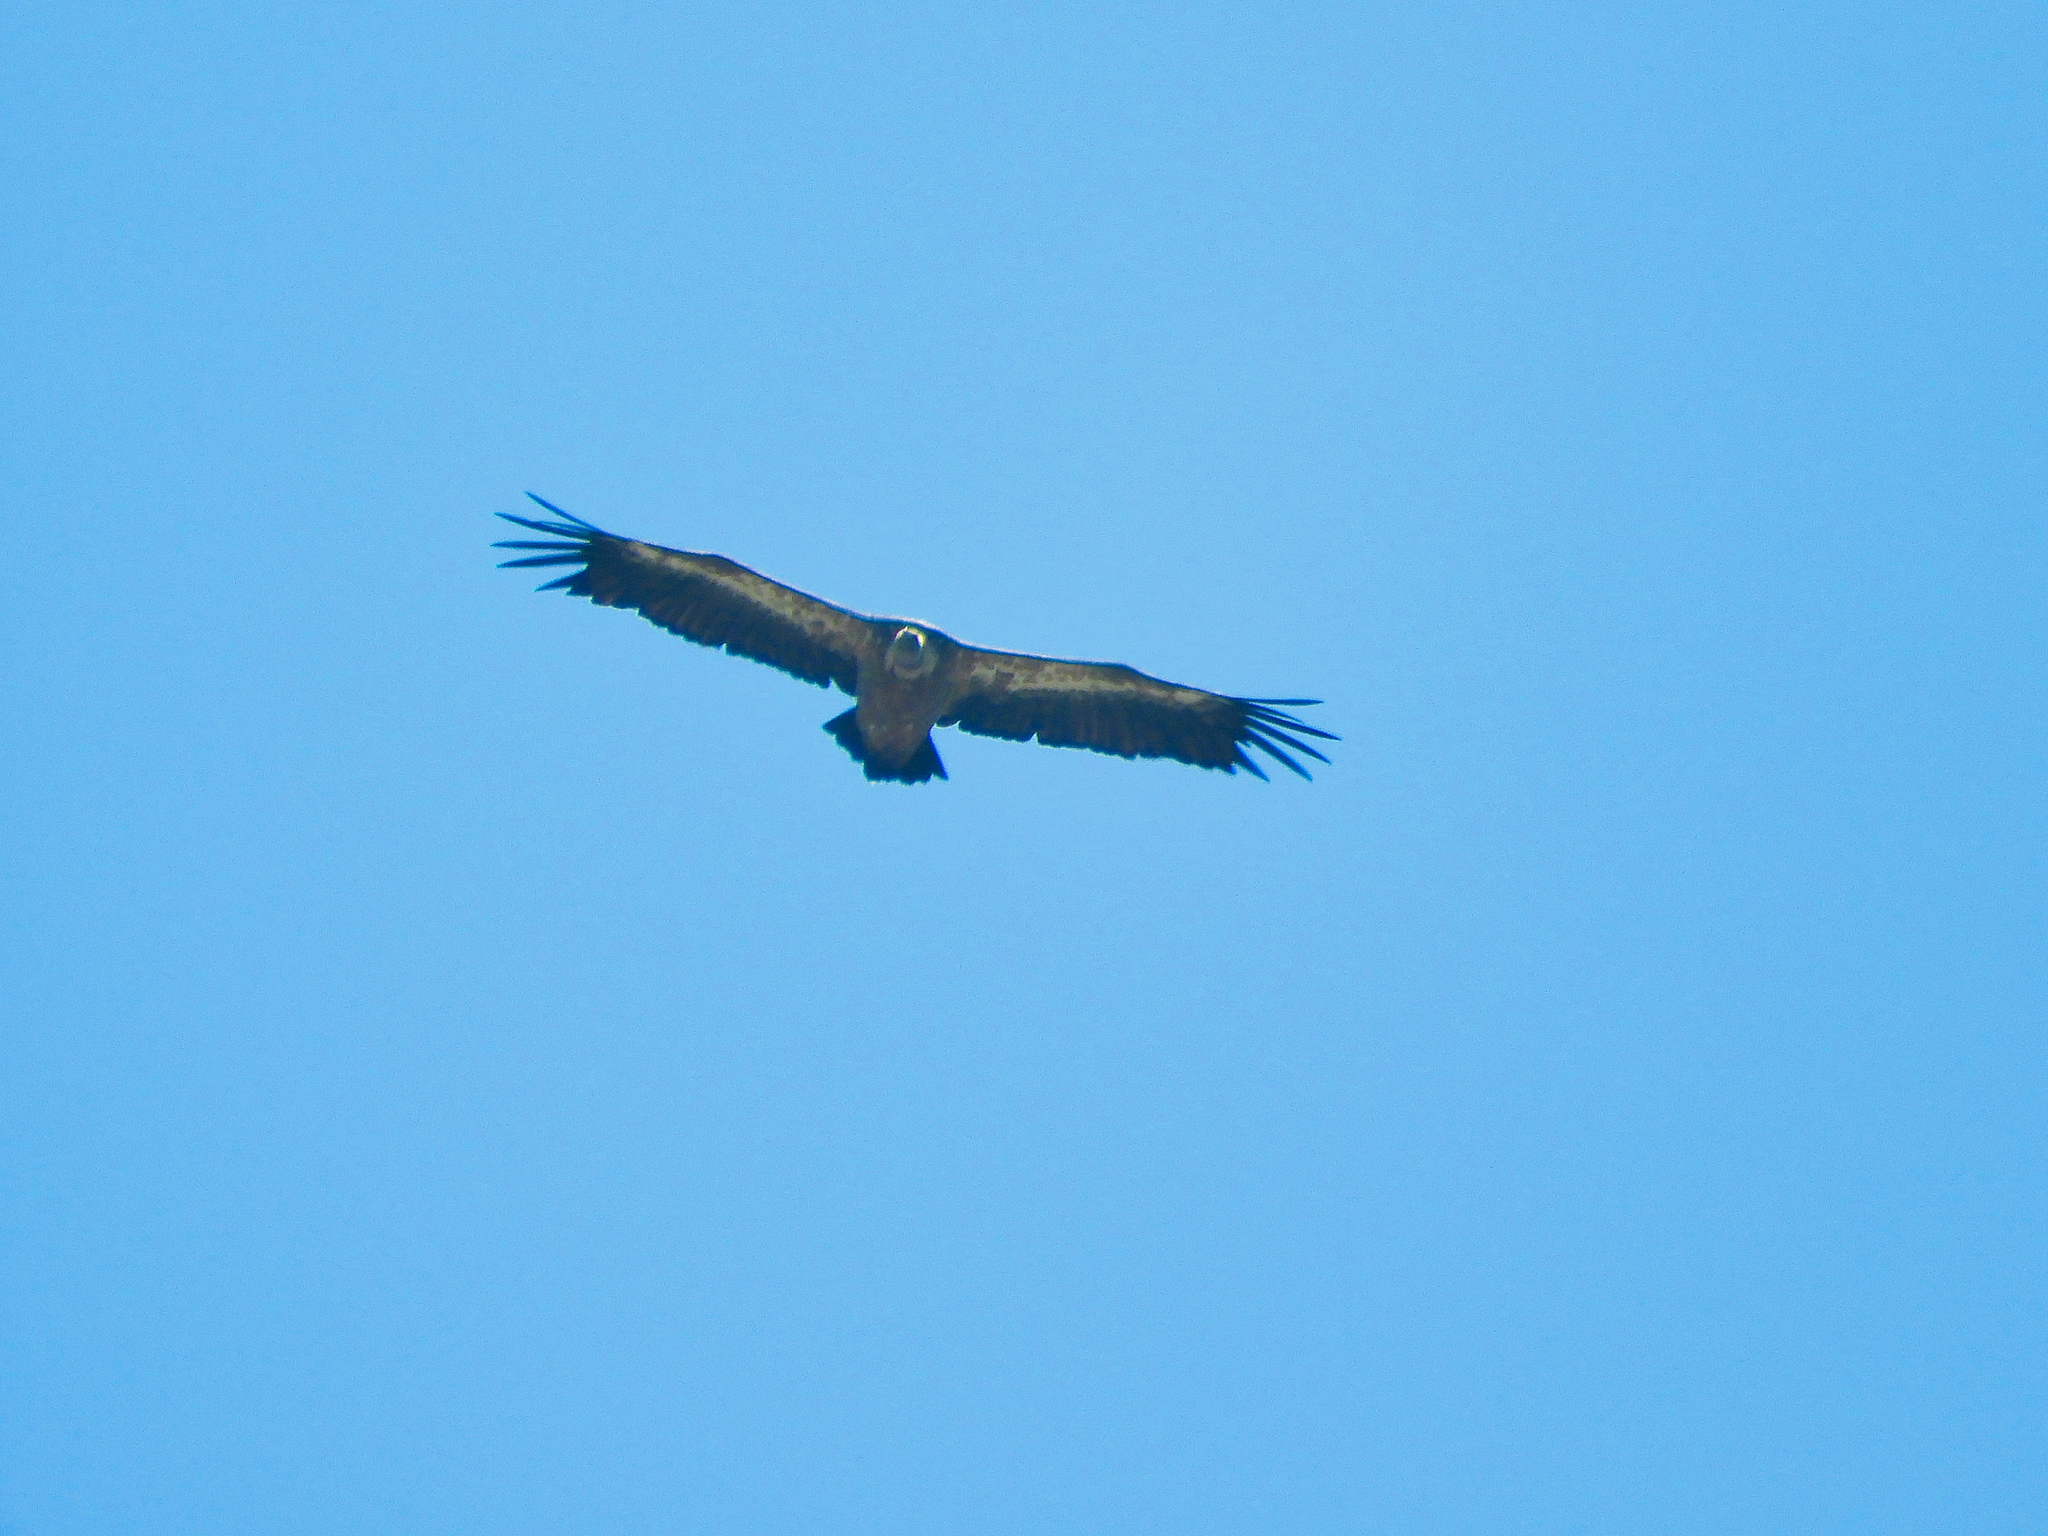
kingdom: Animalia
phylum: Chordata
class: Aves
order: Accipitriformes
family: Accipitridae
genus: Gyps
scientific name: Gyps fulvus
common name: Griffon vulture
